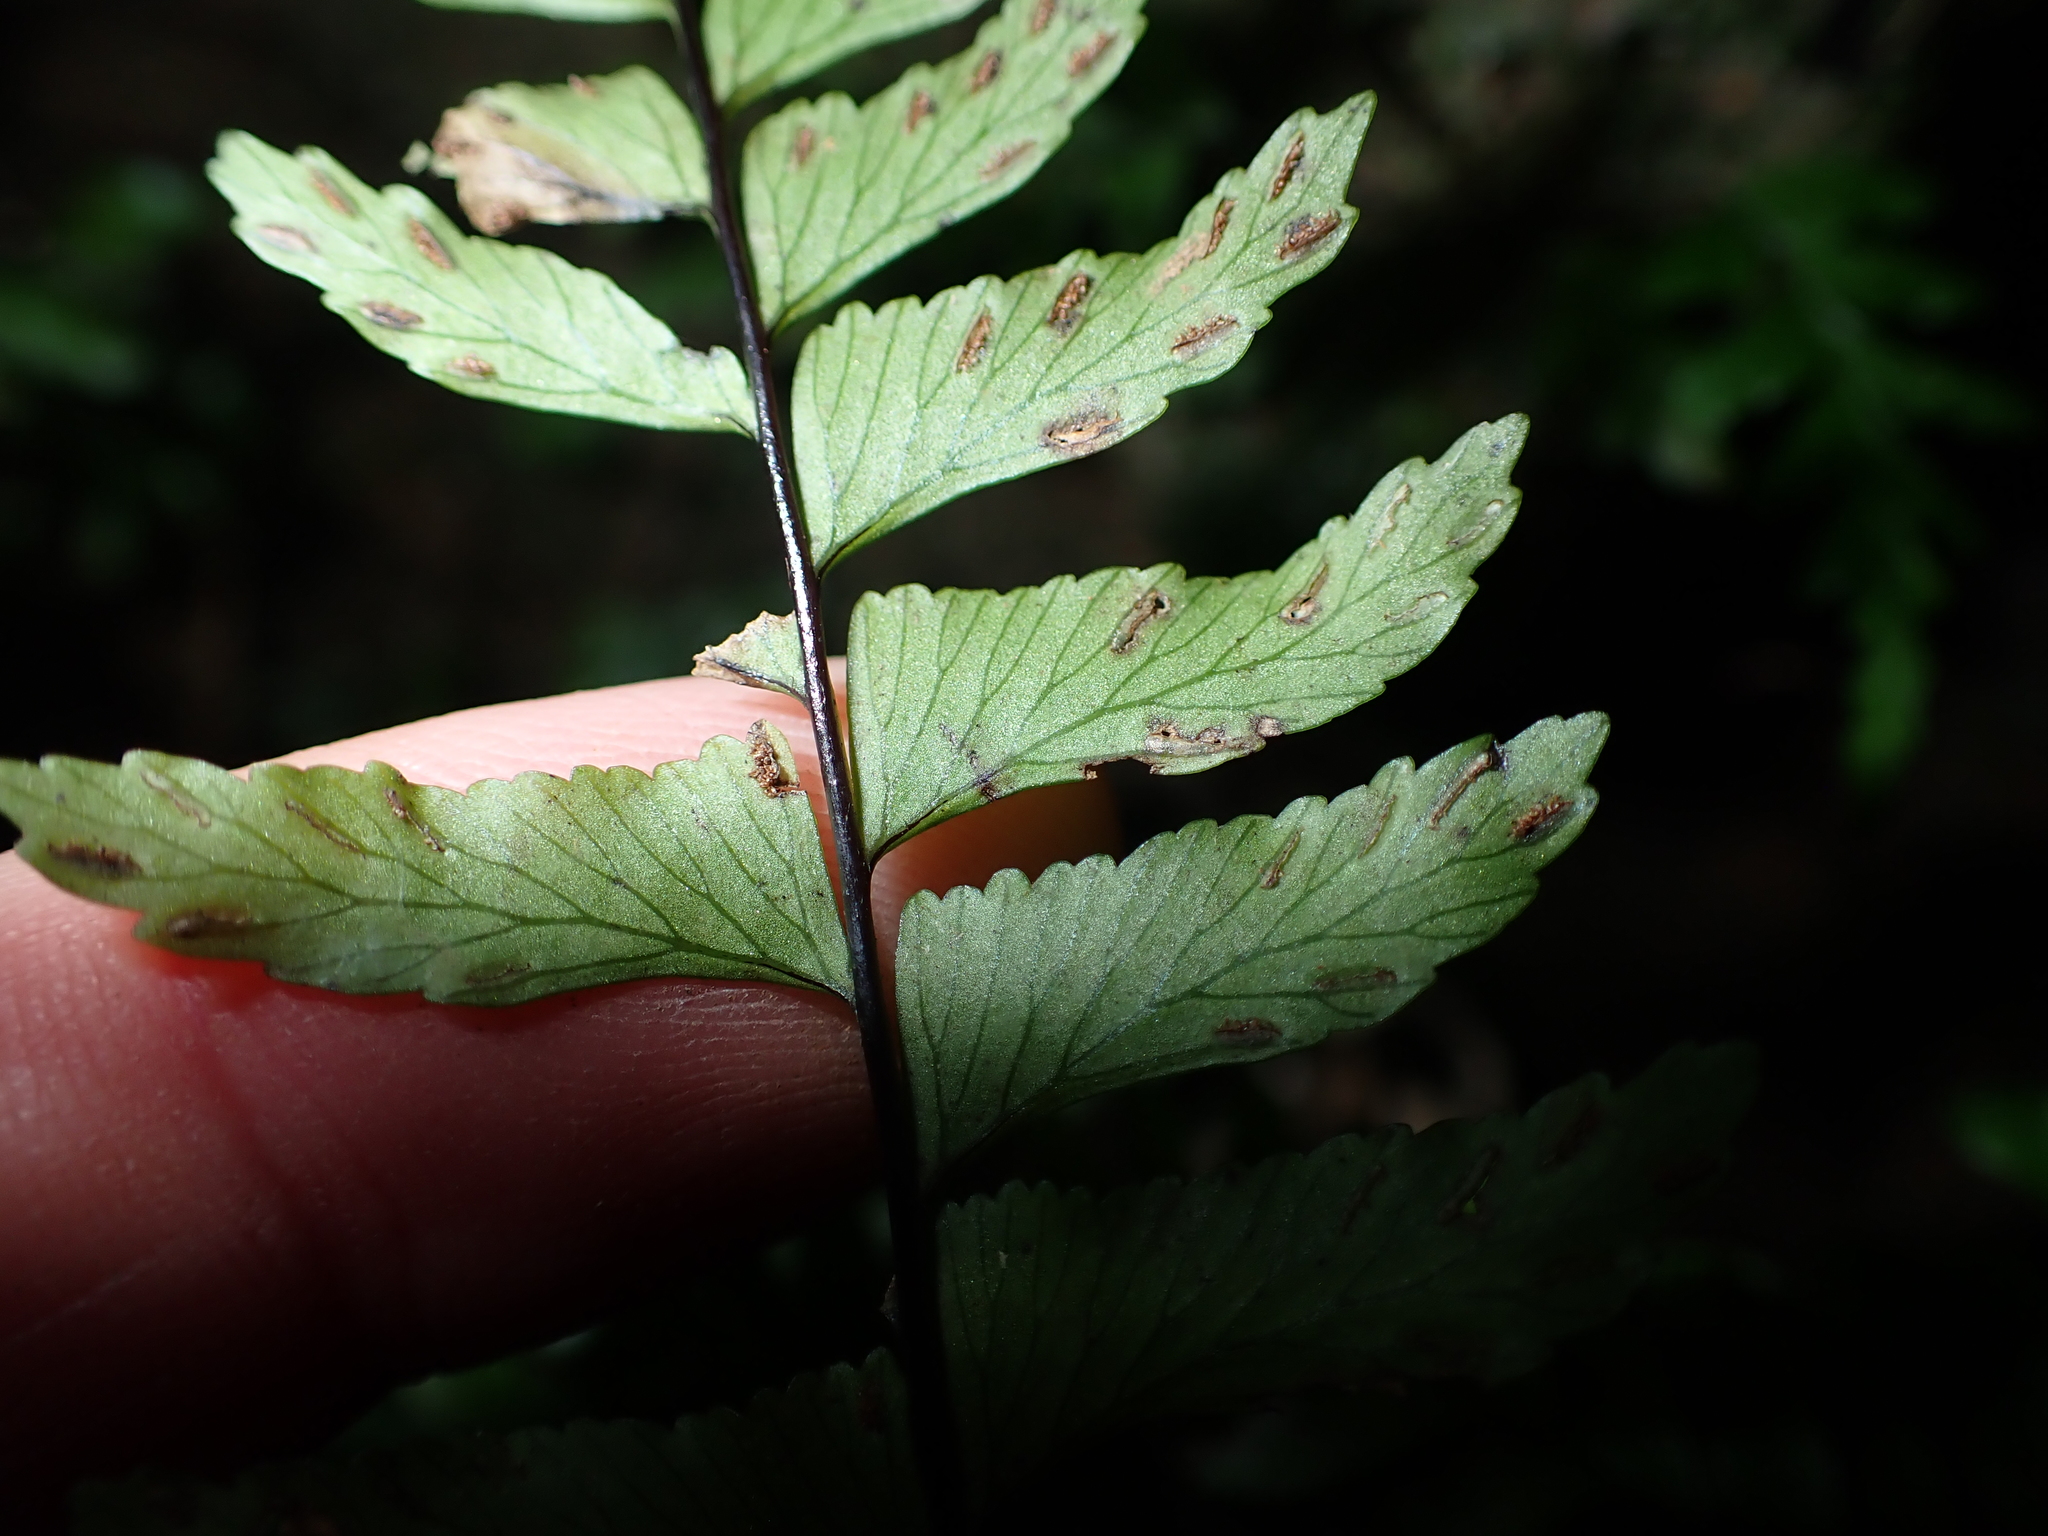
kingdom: Plantae
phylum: Tracheophyta
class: Polypodiopsida
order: Polypodiales
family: Aspleniaceae
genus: Hymenasplenium
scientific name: Hymenasplenium unilaterale
